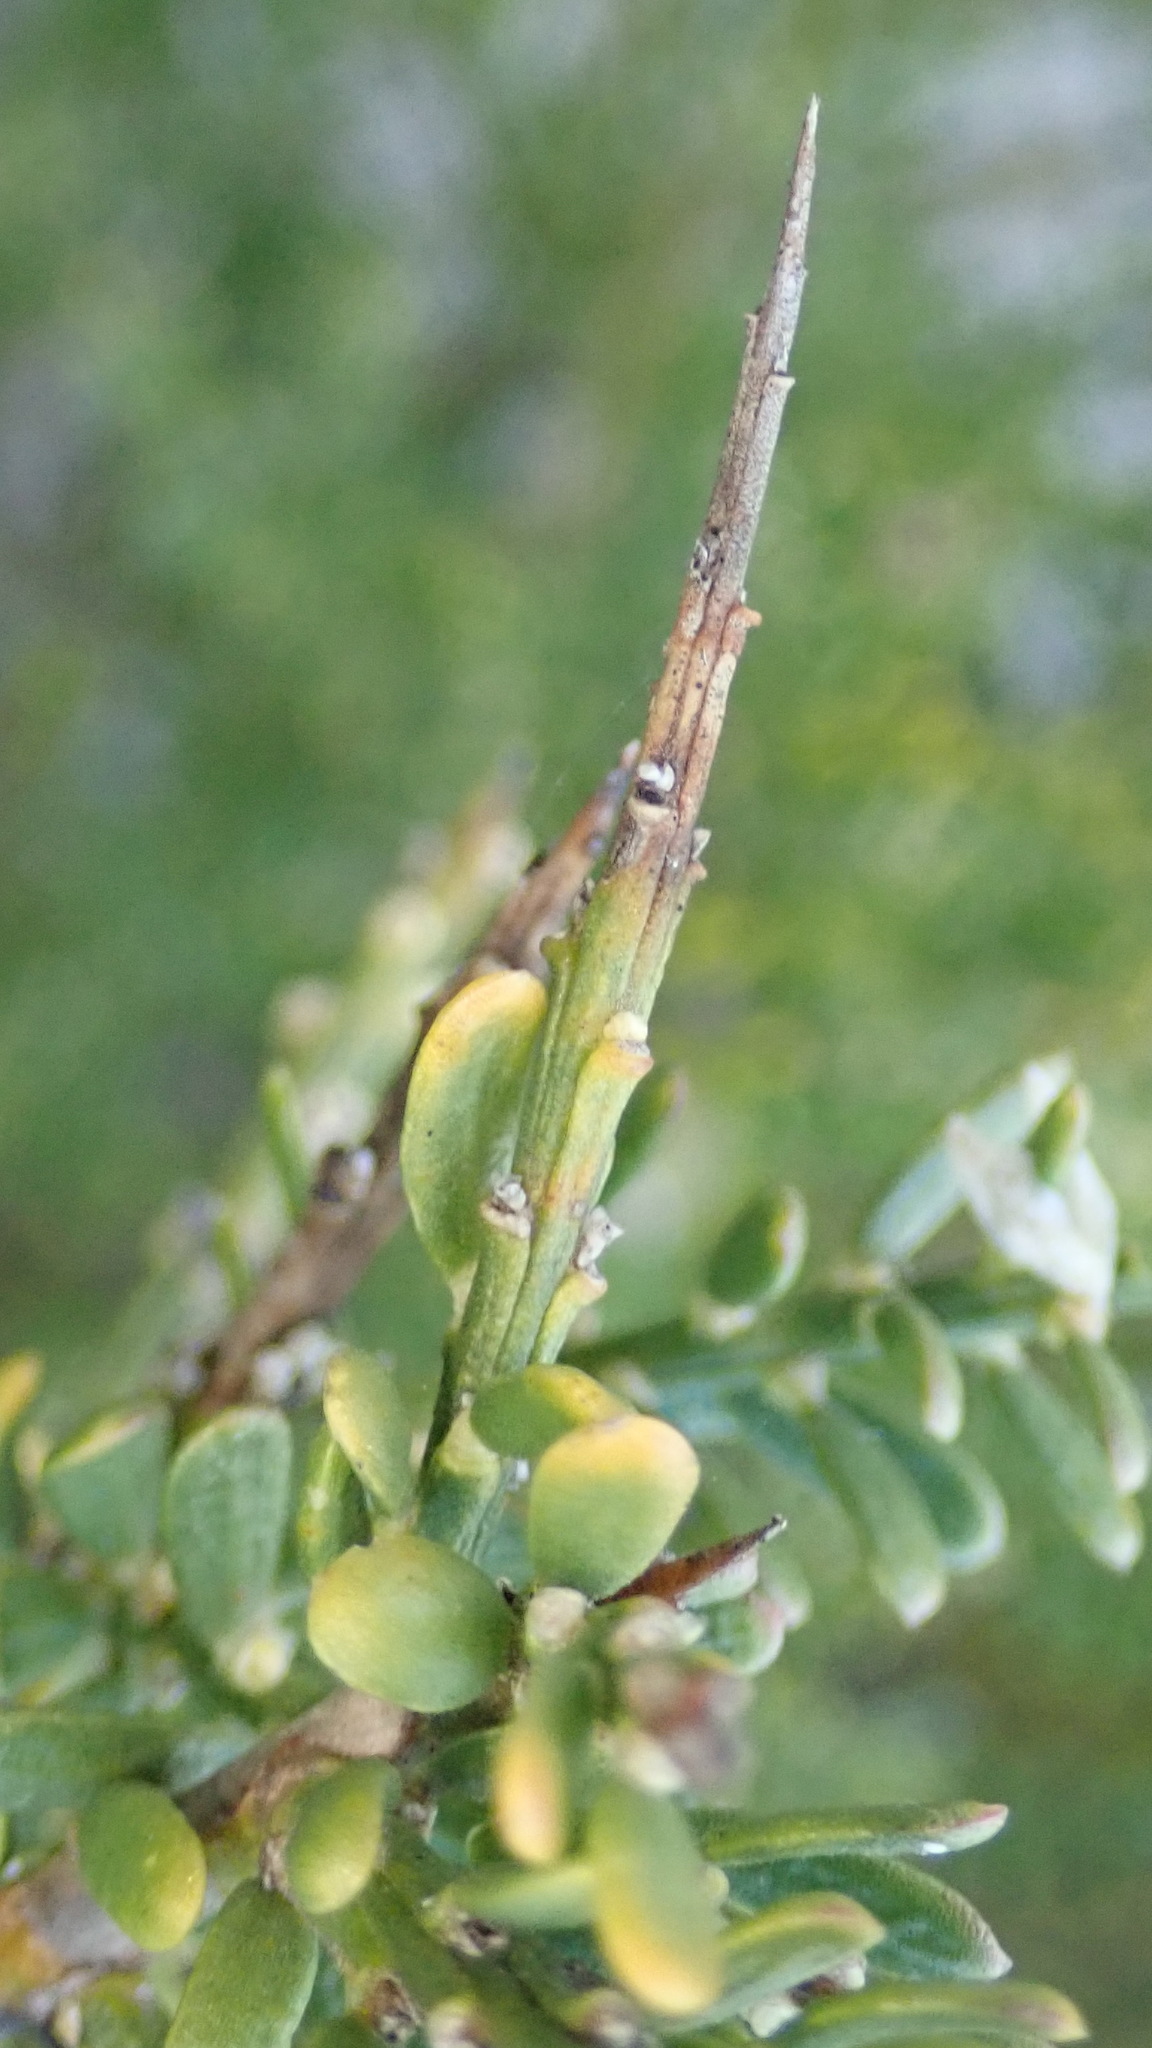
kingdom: Plantae
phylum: Tracheophyta
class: Magnoliopsida
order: Fabales
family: Polygalaceae
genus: Muraltia
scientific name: Muraltia spinosa
